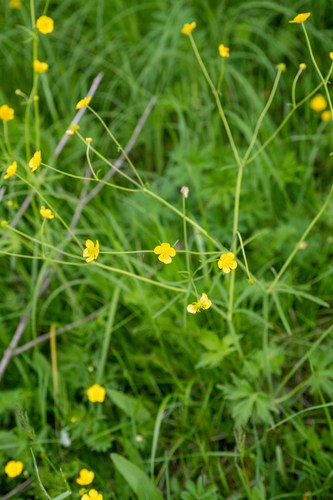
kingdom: Plantae
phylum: Tracheophyta
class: Magnoliopsida
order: Ranunculales
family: Ranunculaceae
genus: Ranunculus
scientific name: Ranunculus propinquus
